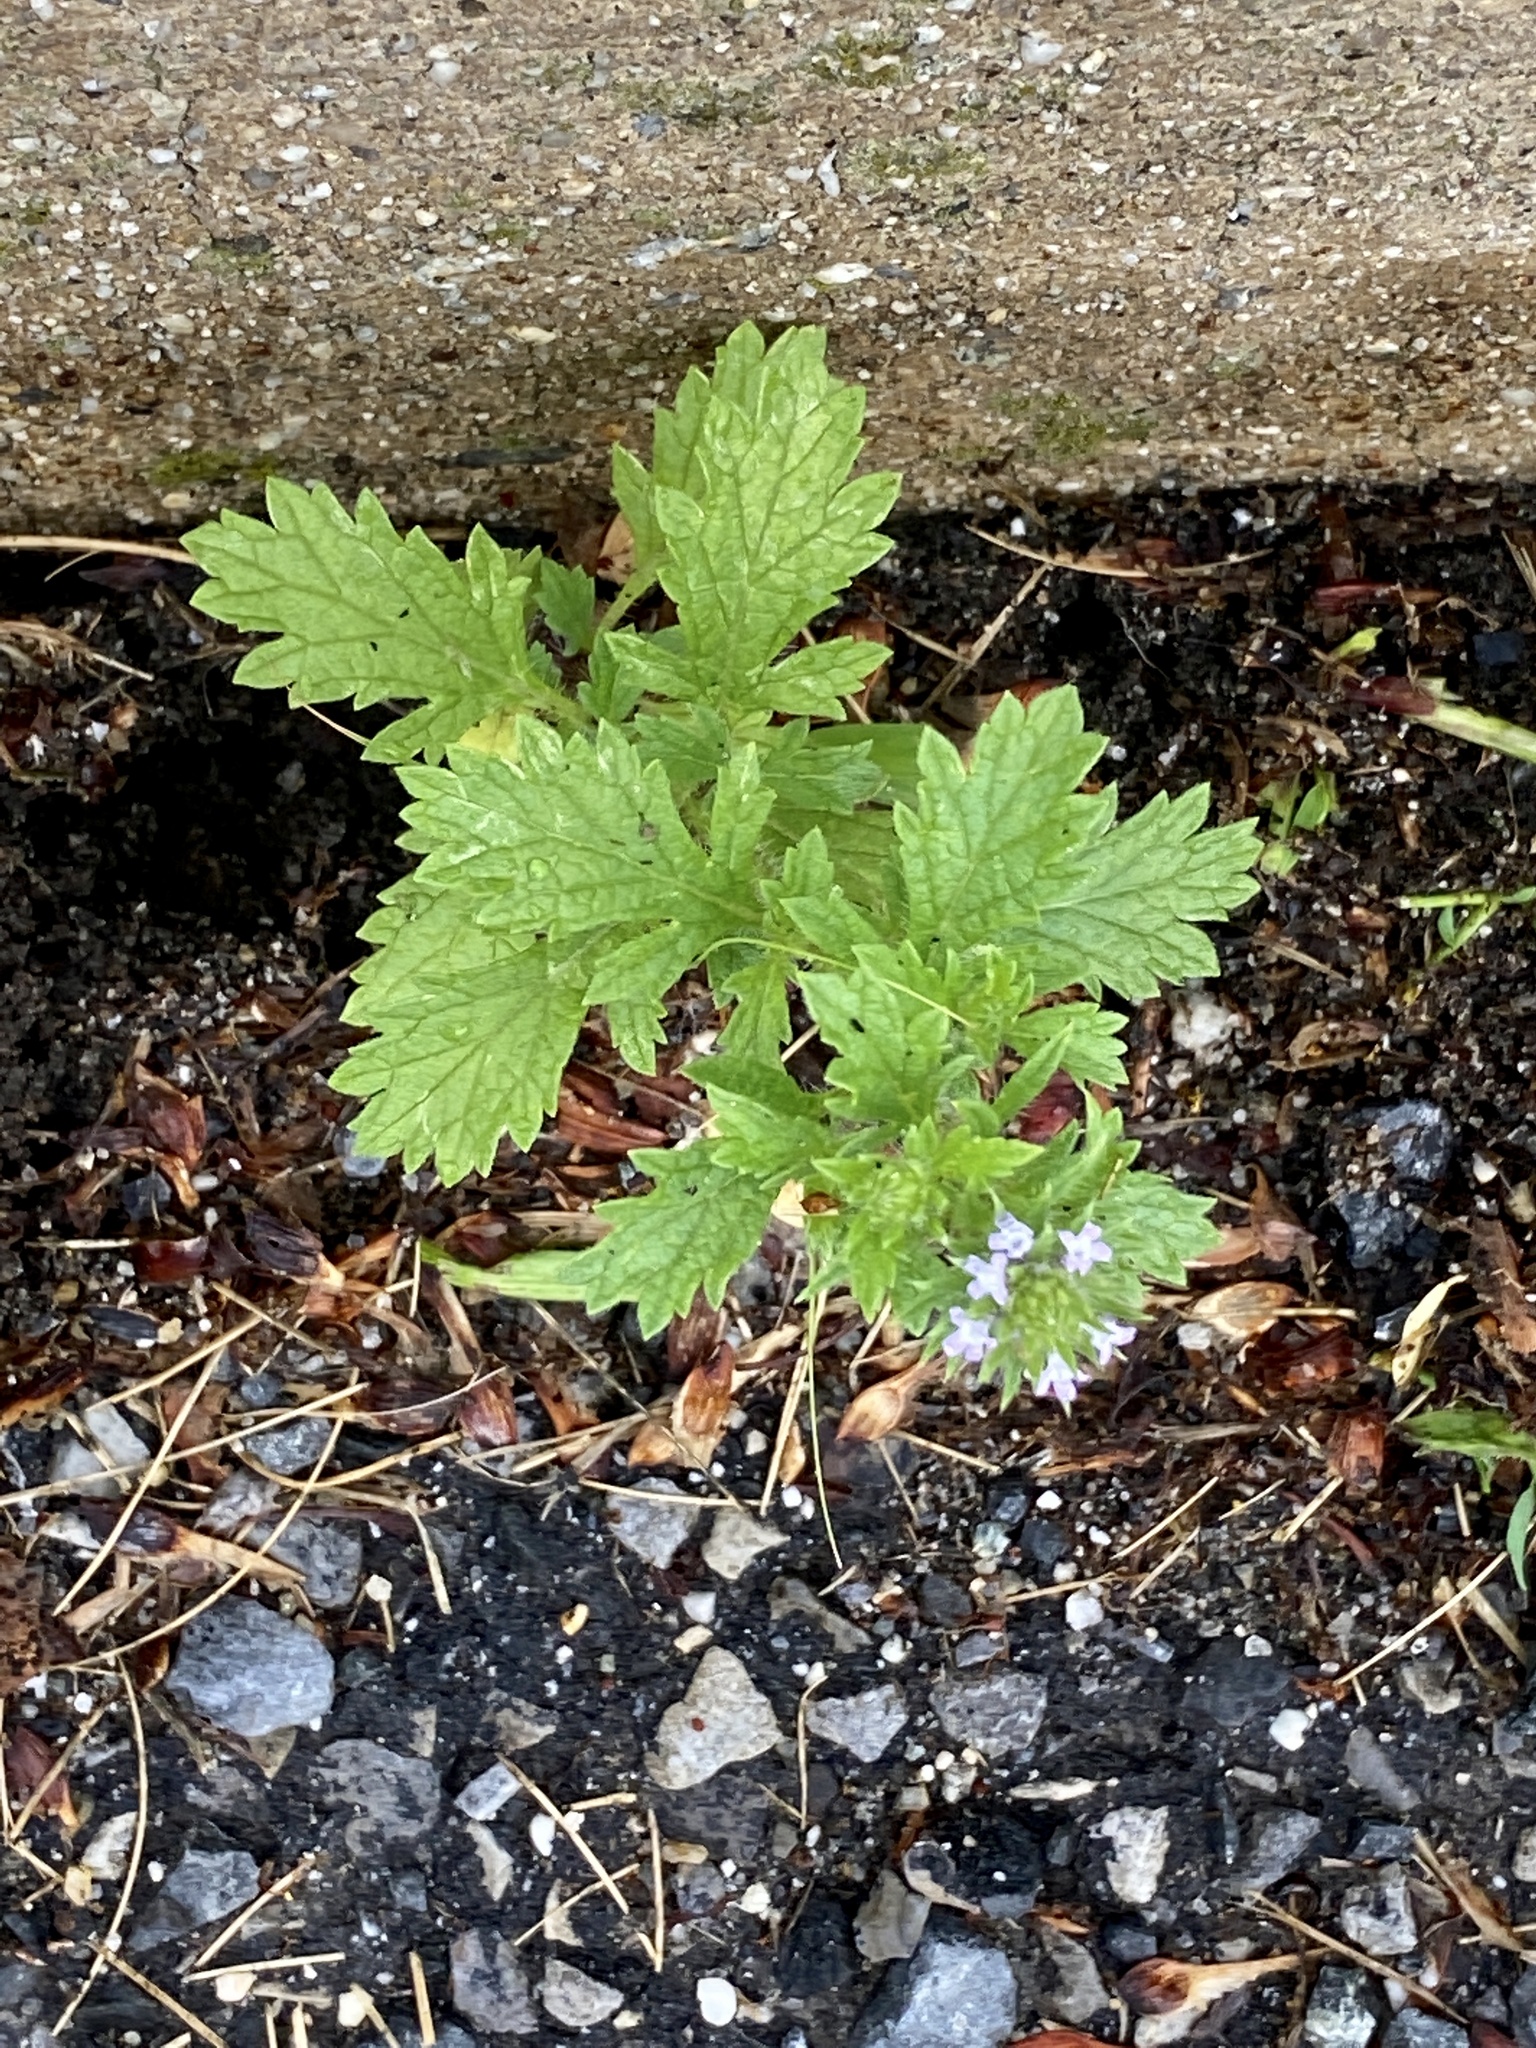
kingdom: Plantae
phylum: Tracheophyta
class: Magnoliopsida
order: Lamiales
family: Verbenaceae
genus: Verbena
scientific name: Verbena bracteata
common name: Bracted vervain
